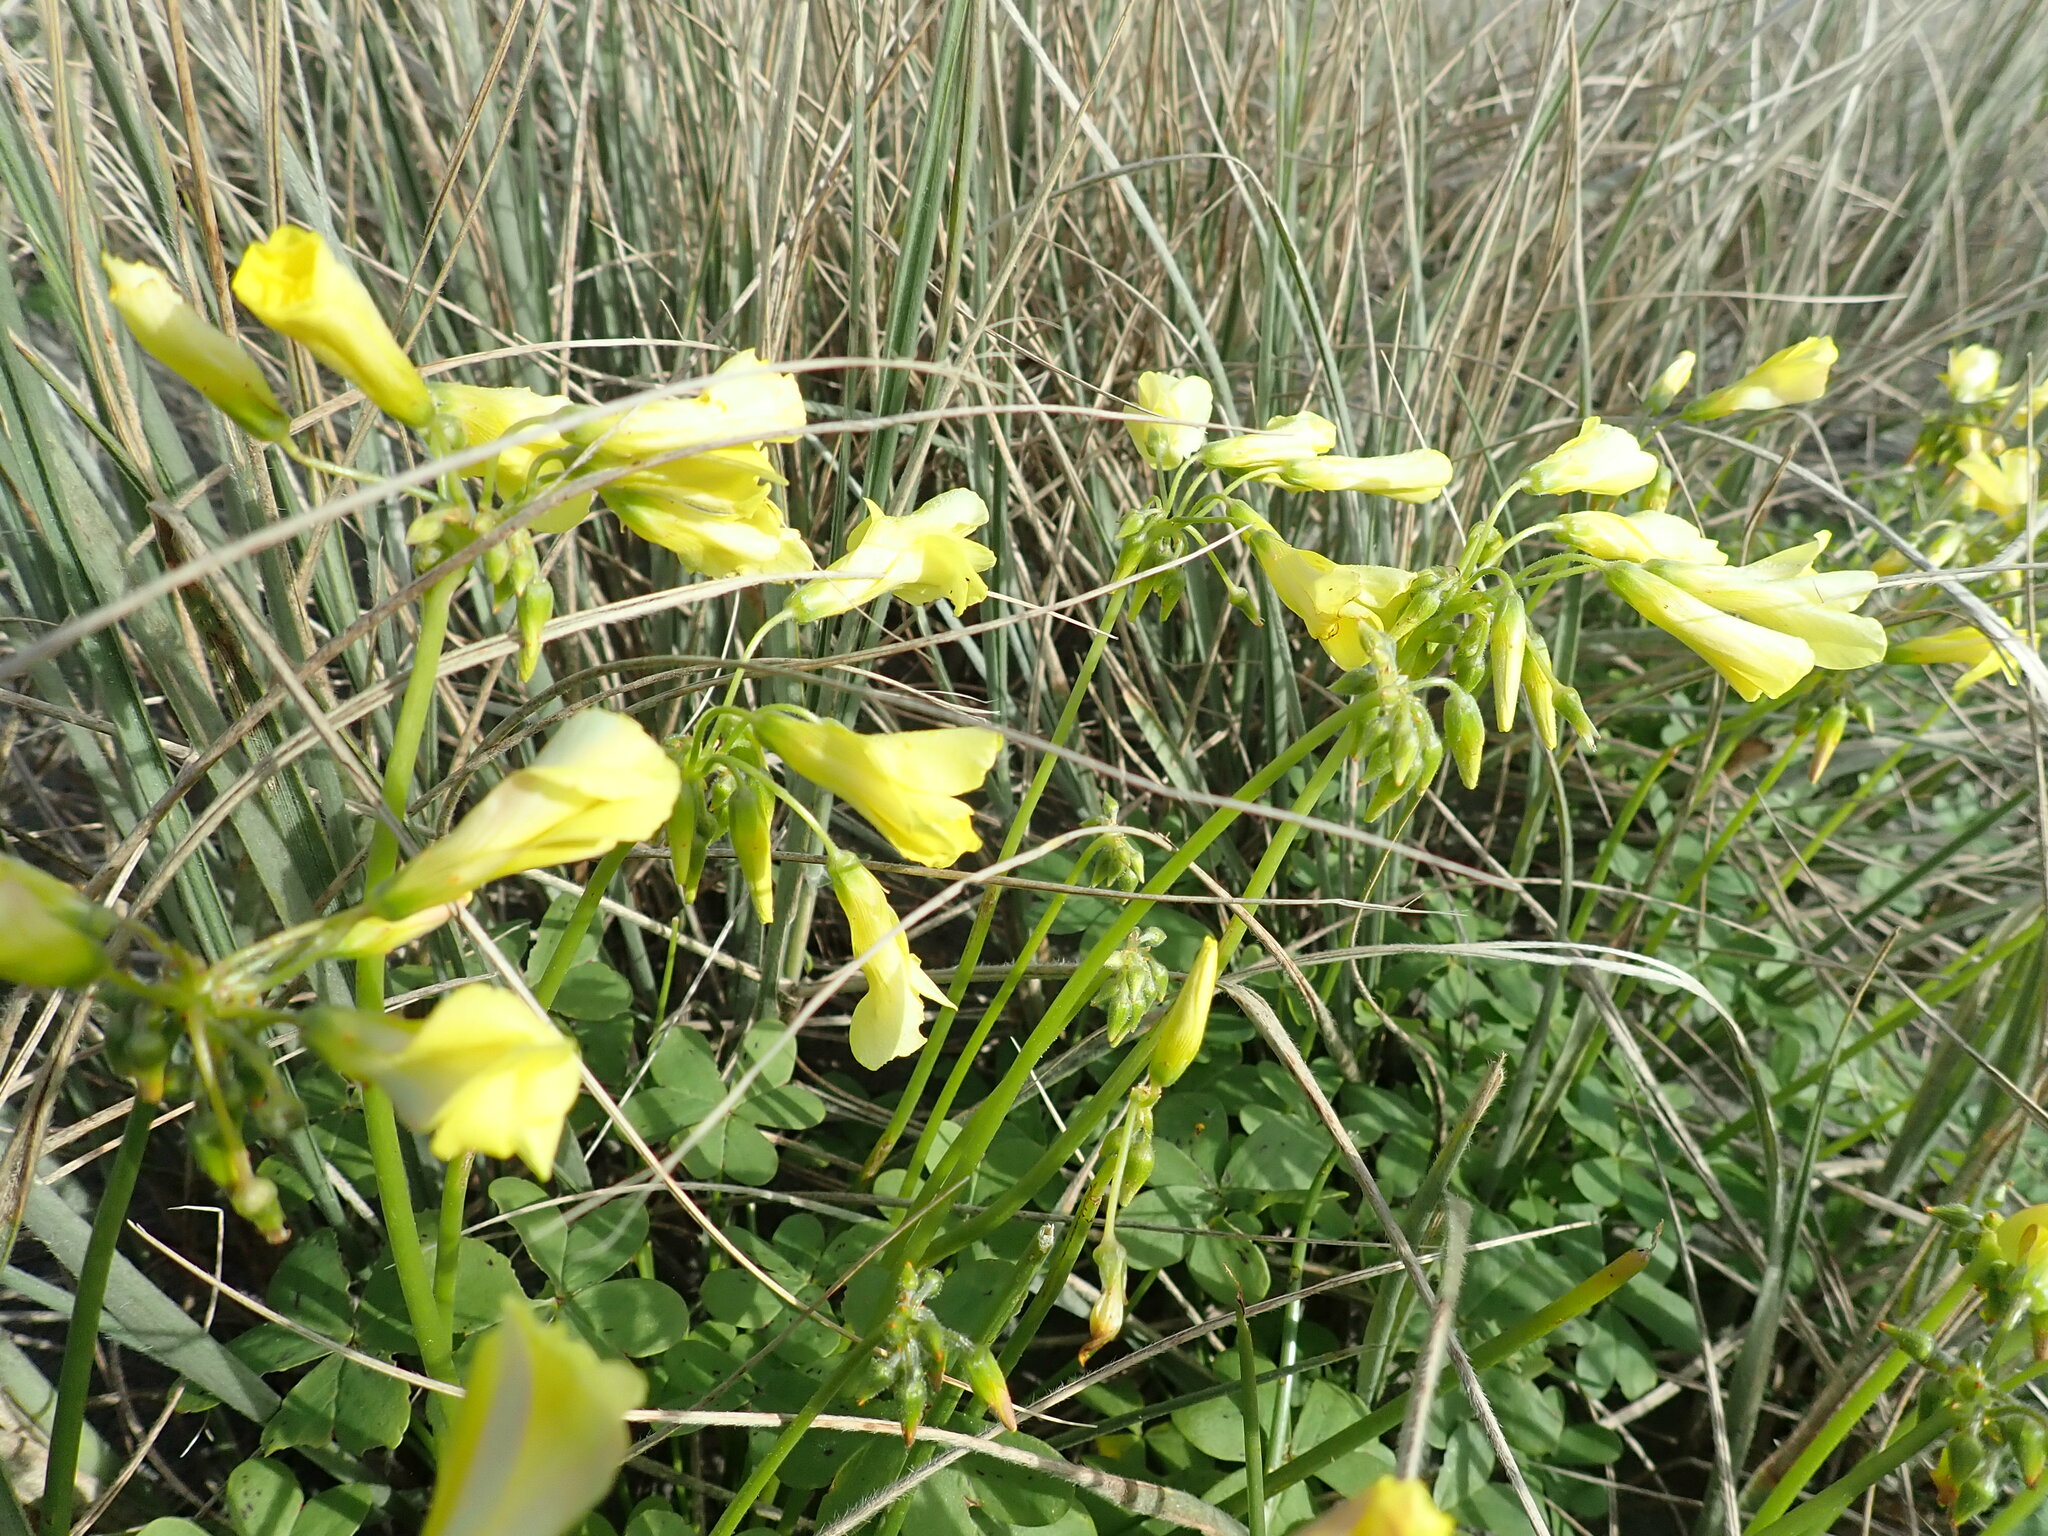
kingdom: Plantae
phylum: Tracheophyta
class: Magnoliopsida
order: Oxalidales
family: Oxalidaceae
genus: Oxalis
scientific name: Oxalis pes-caprae
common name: Bermuda-buttercup
